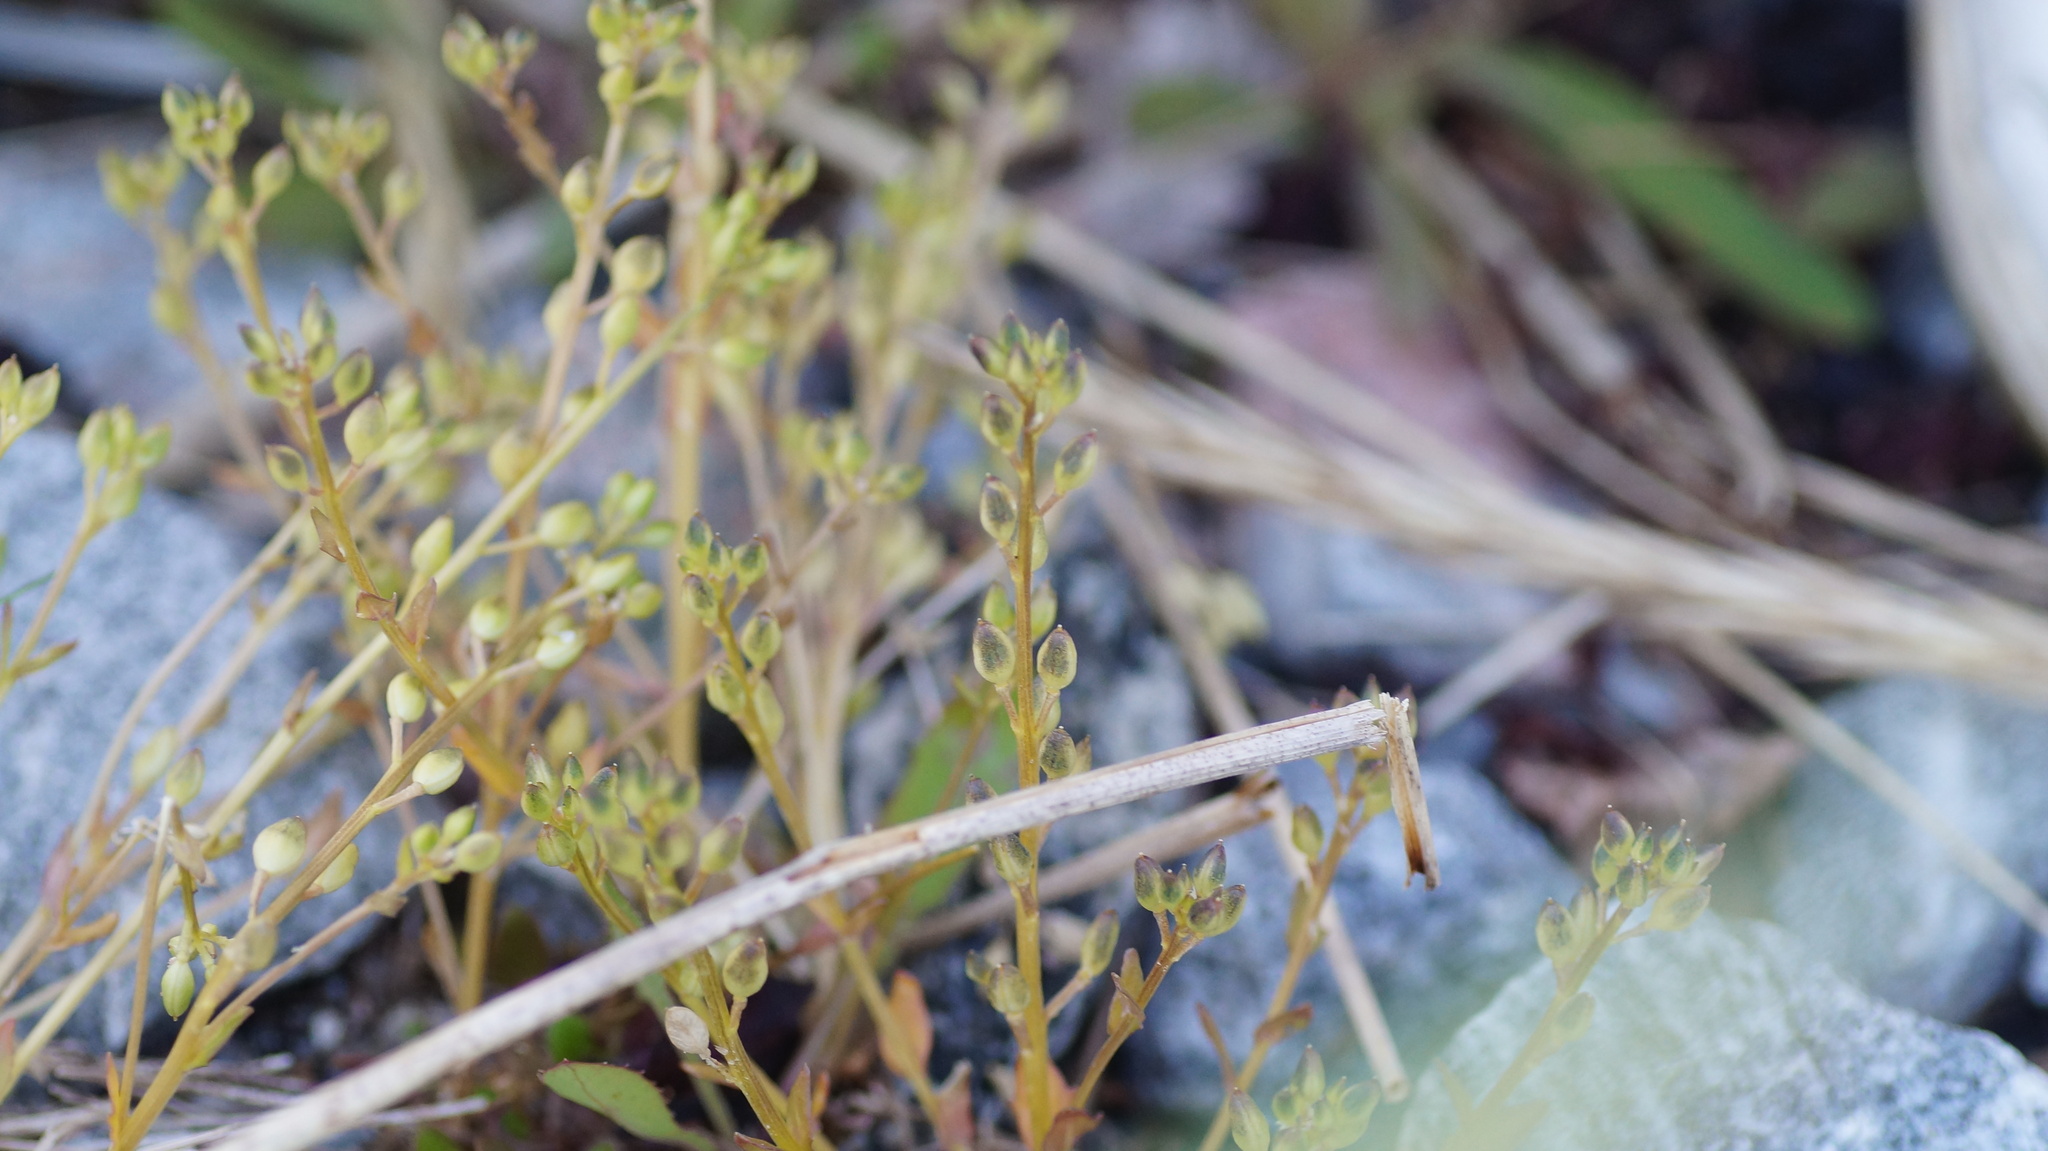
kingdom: Plantae
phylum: Tracheophyta
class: Magnoliopsida
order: Brassicales
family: Brassicaceae
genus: Cochlearia
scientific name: Cochlearia officinalis
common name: Scurvy-grass
